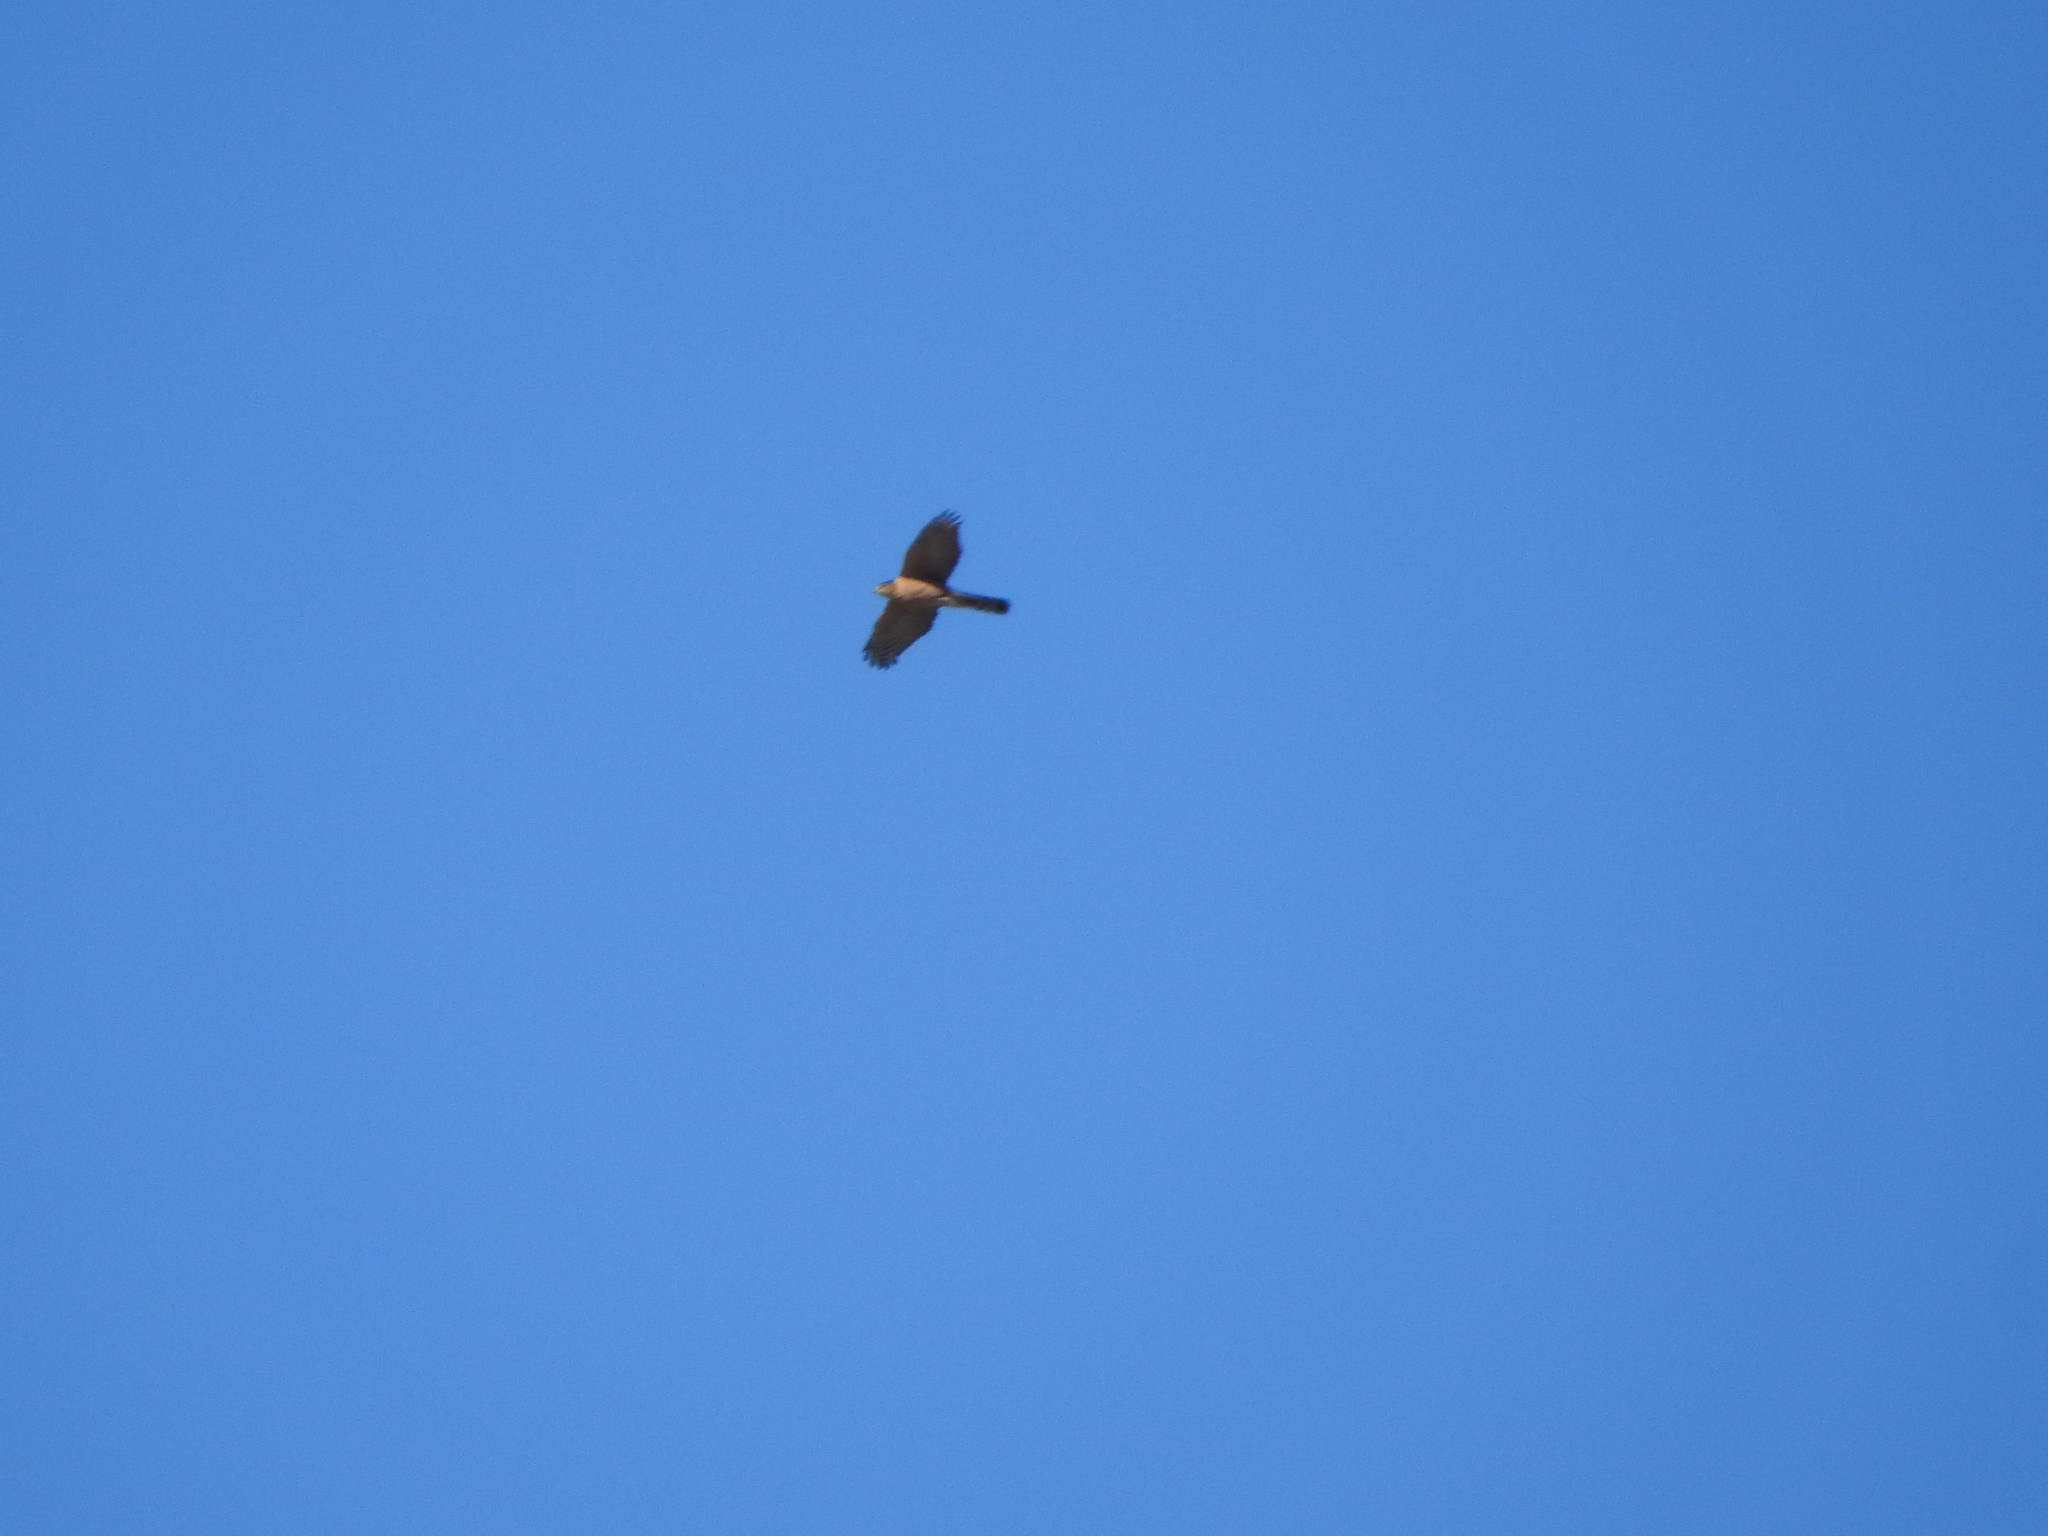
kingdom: Animalia
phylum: Chordata
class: Aves
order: Accipitriformes
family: Accipitridae
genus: Accipiter
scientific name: Accipiter cooperii
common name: Cooper's hawk
